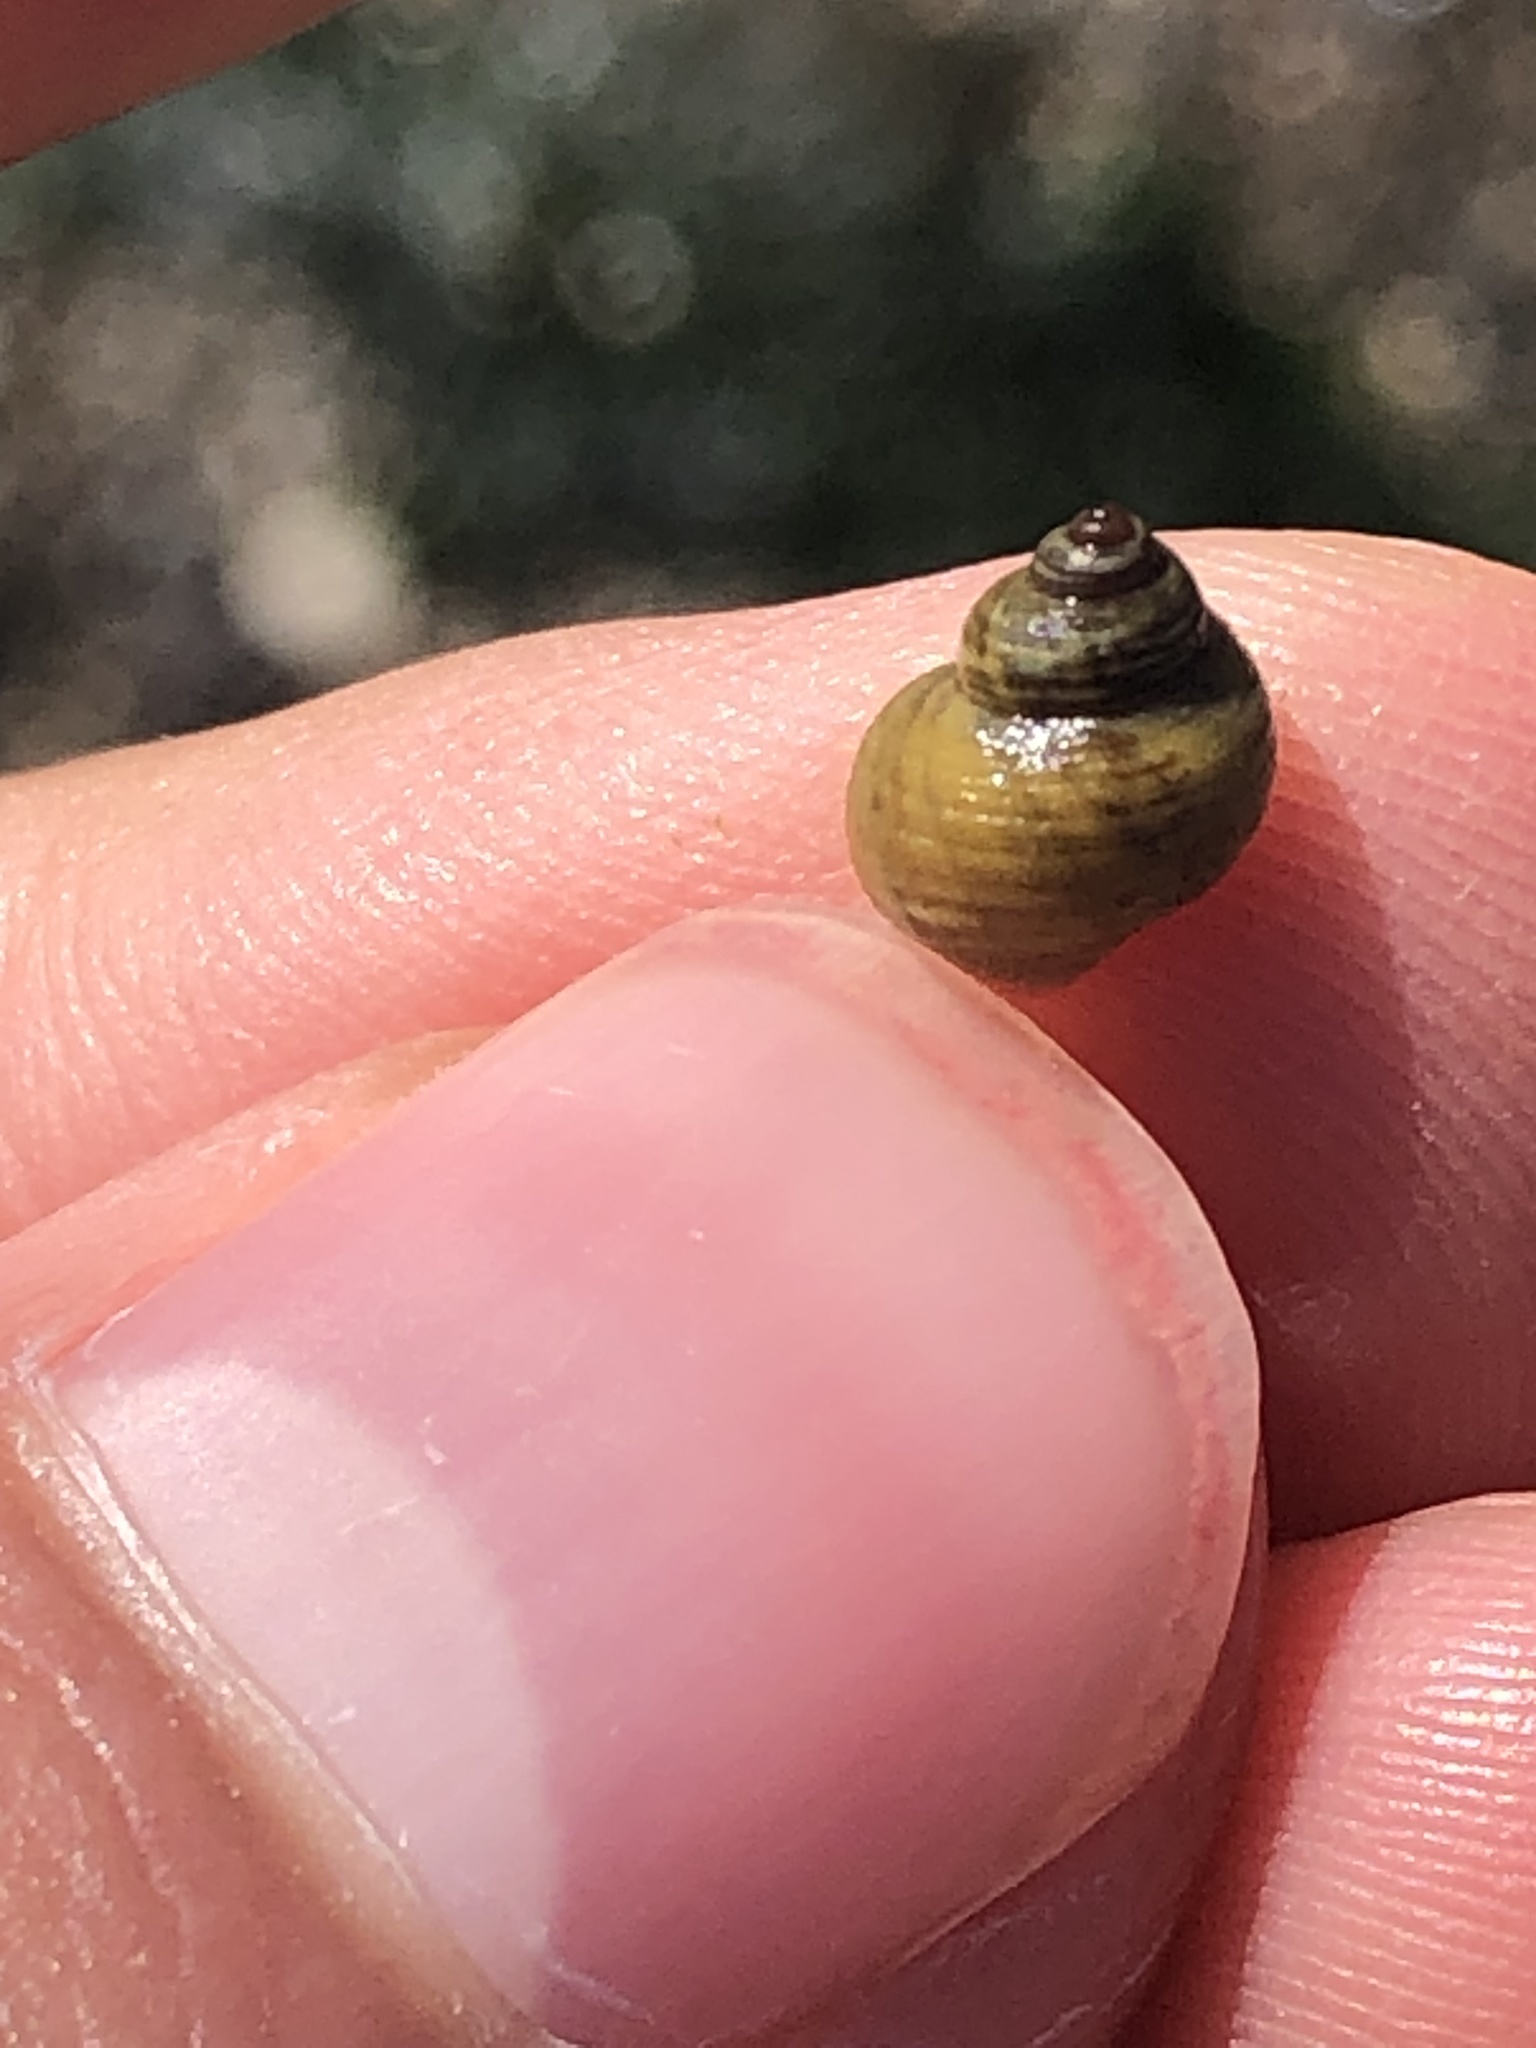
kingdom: Animalia
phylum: Mollusca
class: Gastropoda
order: Littorinimorpha
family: Littorinidae
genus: Littorina
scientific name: Littorina saxatilis
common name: Black-lined periwinkle
